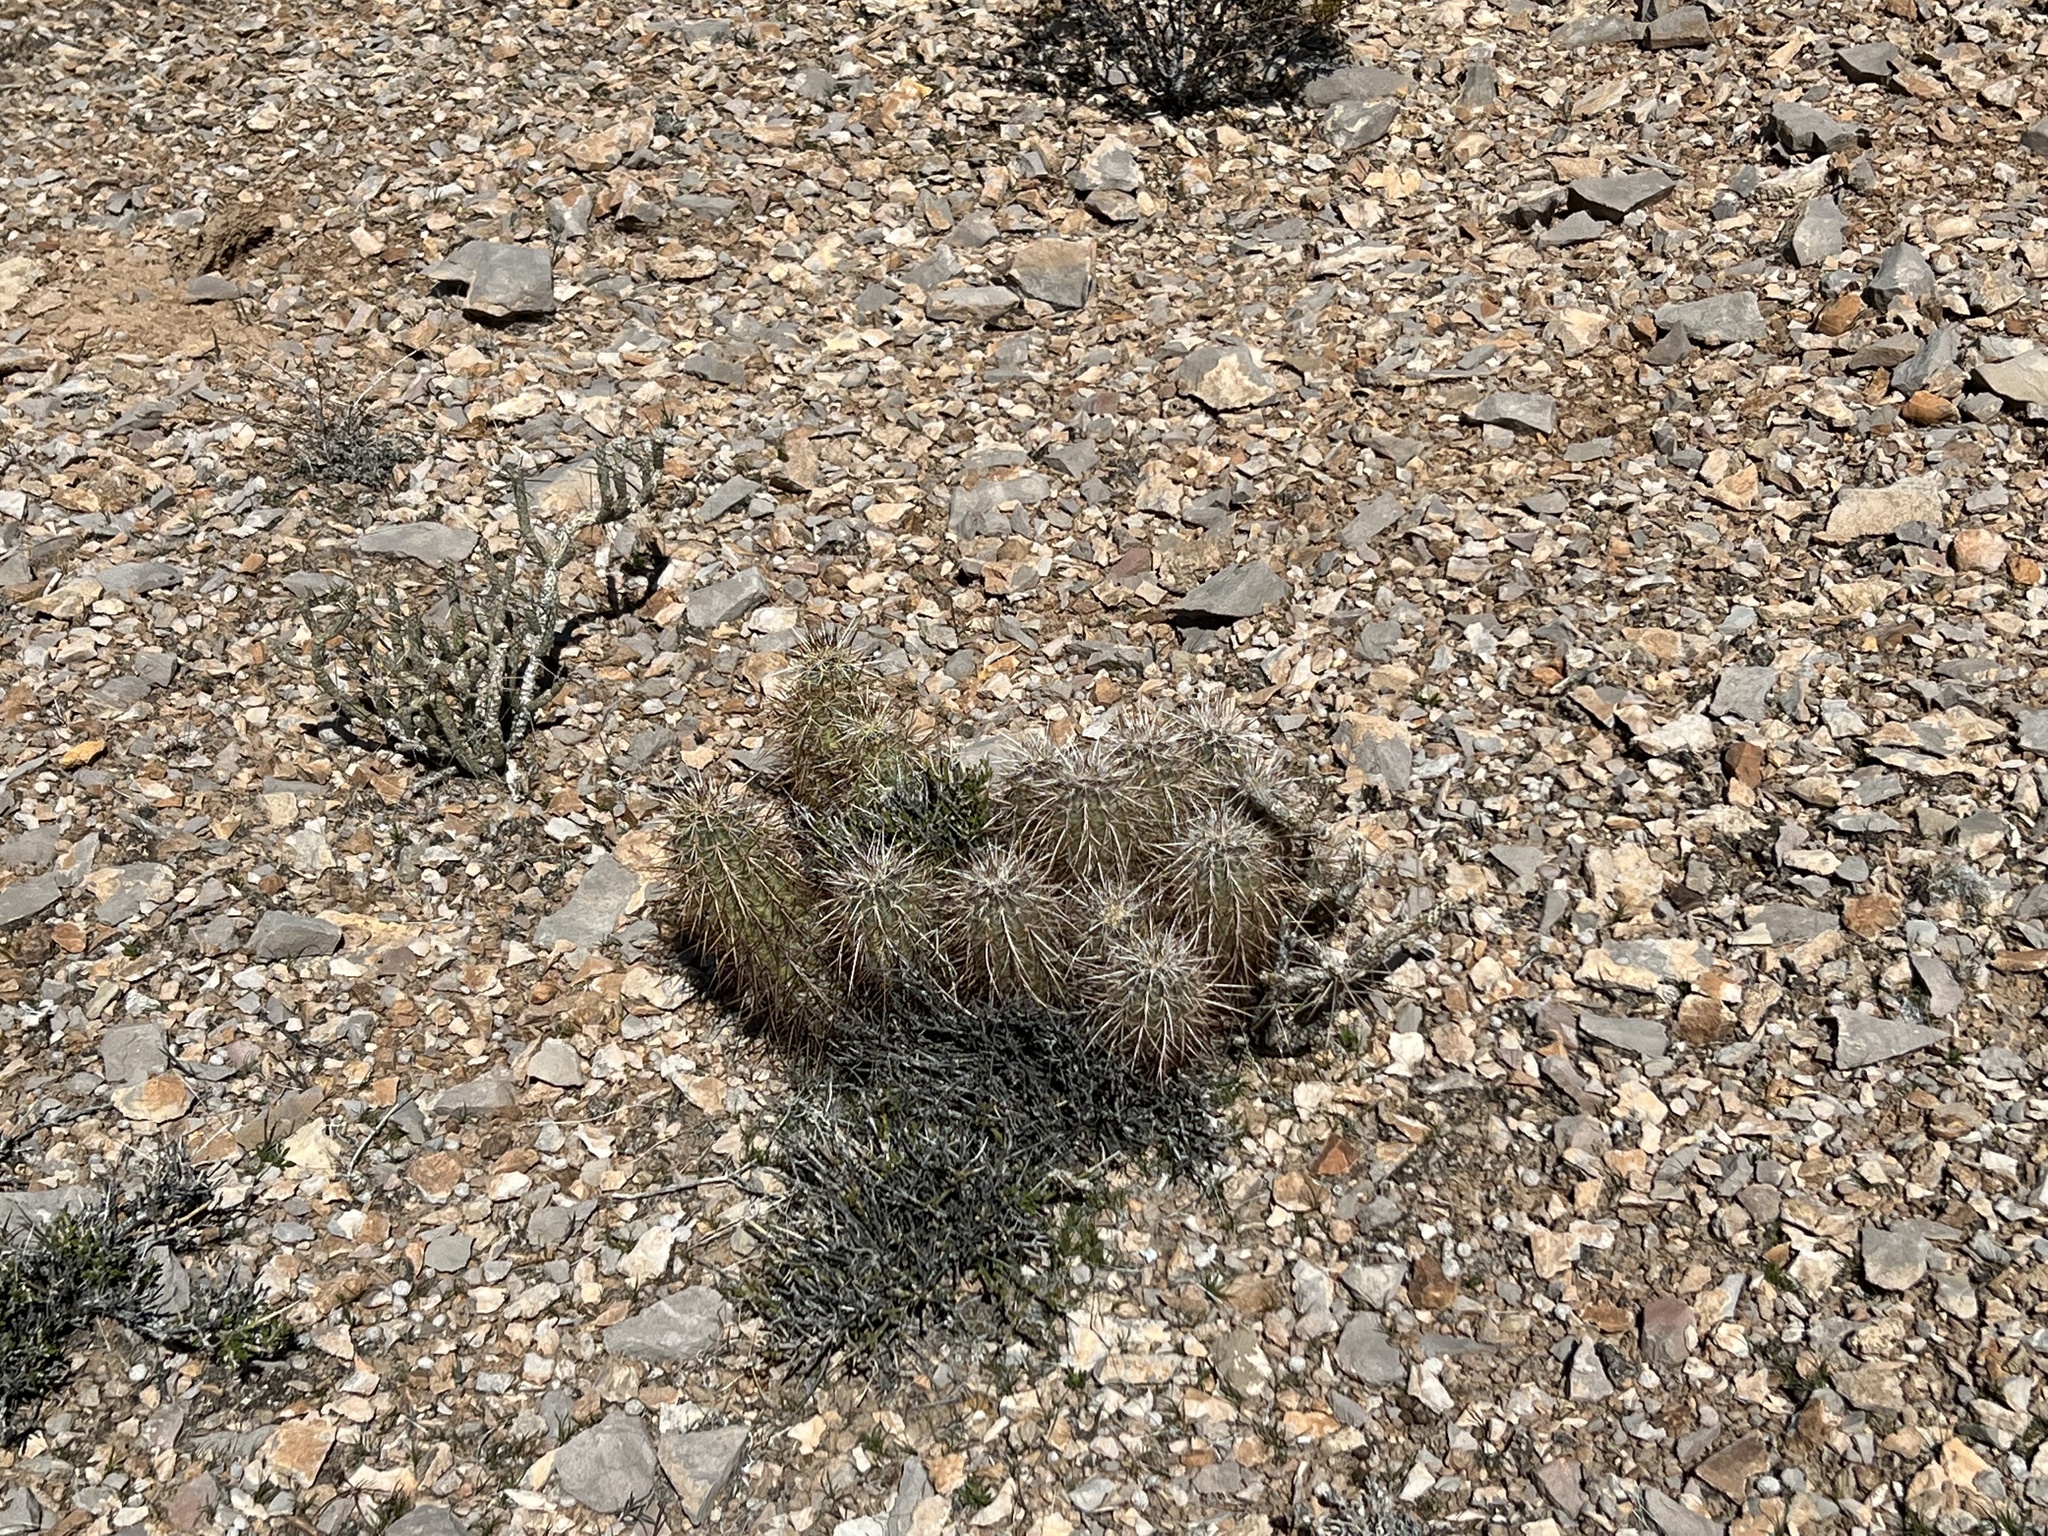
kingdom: Plantae
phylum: Tracheophyta
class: Magnoliopsida
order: Caryophyllales
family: Cactaceae
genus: Echinocereus
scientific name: Echinocereus engelmannii
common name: Engelmann's hedgehog cactus
